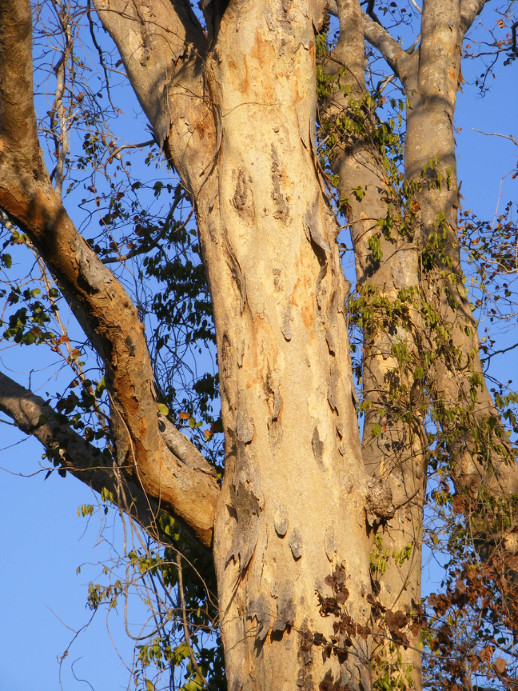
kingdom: Plantae
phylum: Tracheophyta
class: Magnoliopsida
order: Fabales
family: Fabaceae
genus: Guibourtia
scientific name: Guibourtia conjugata
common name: Small bastard mopane
